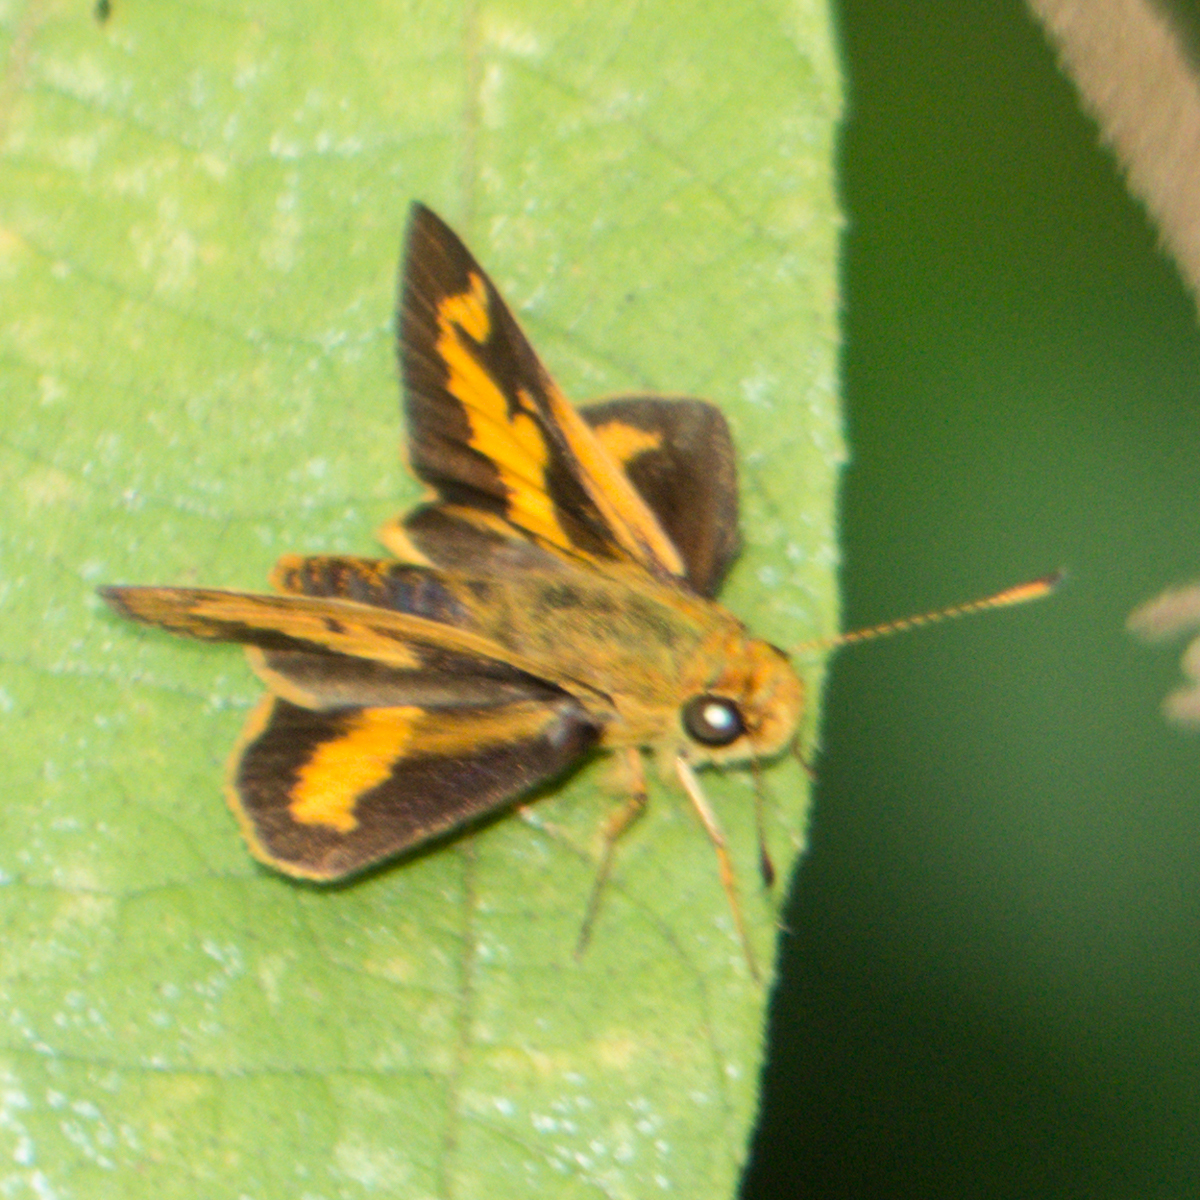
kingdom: Animalia
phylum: Arthropoda
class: Insecta
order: Lepidoptera
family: Hesperiidae
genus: Oriens
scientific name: Oriens gola
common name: Common dartlet
